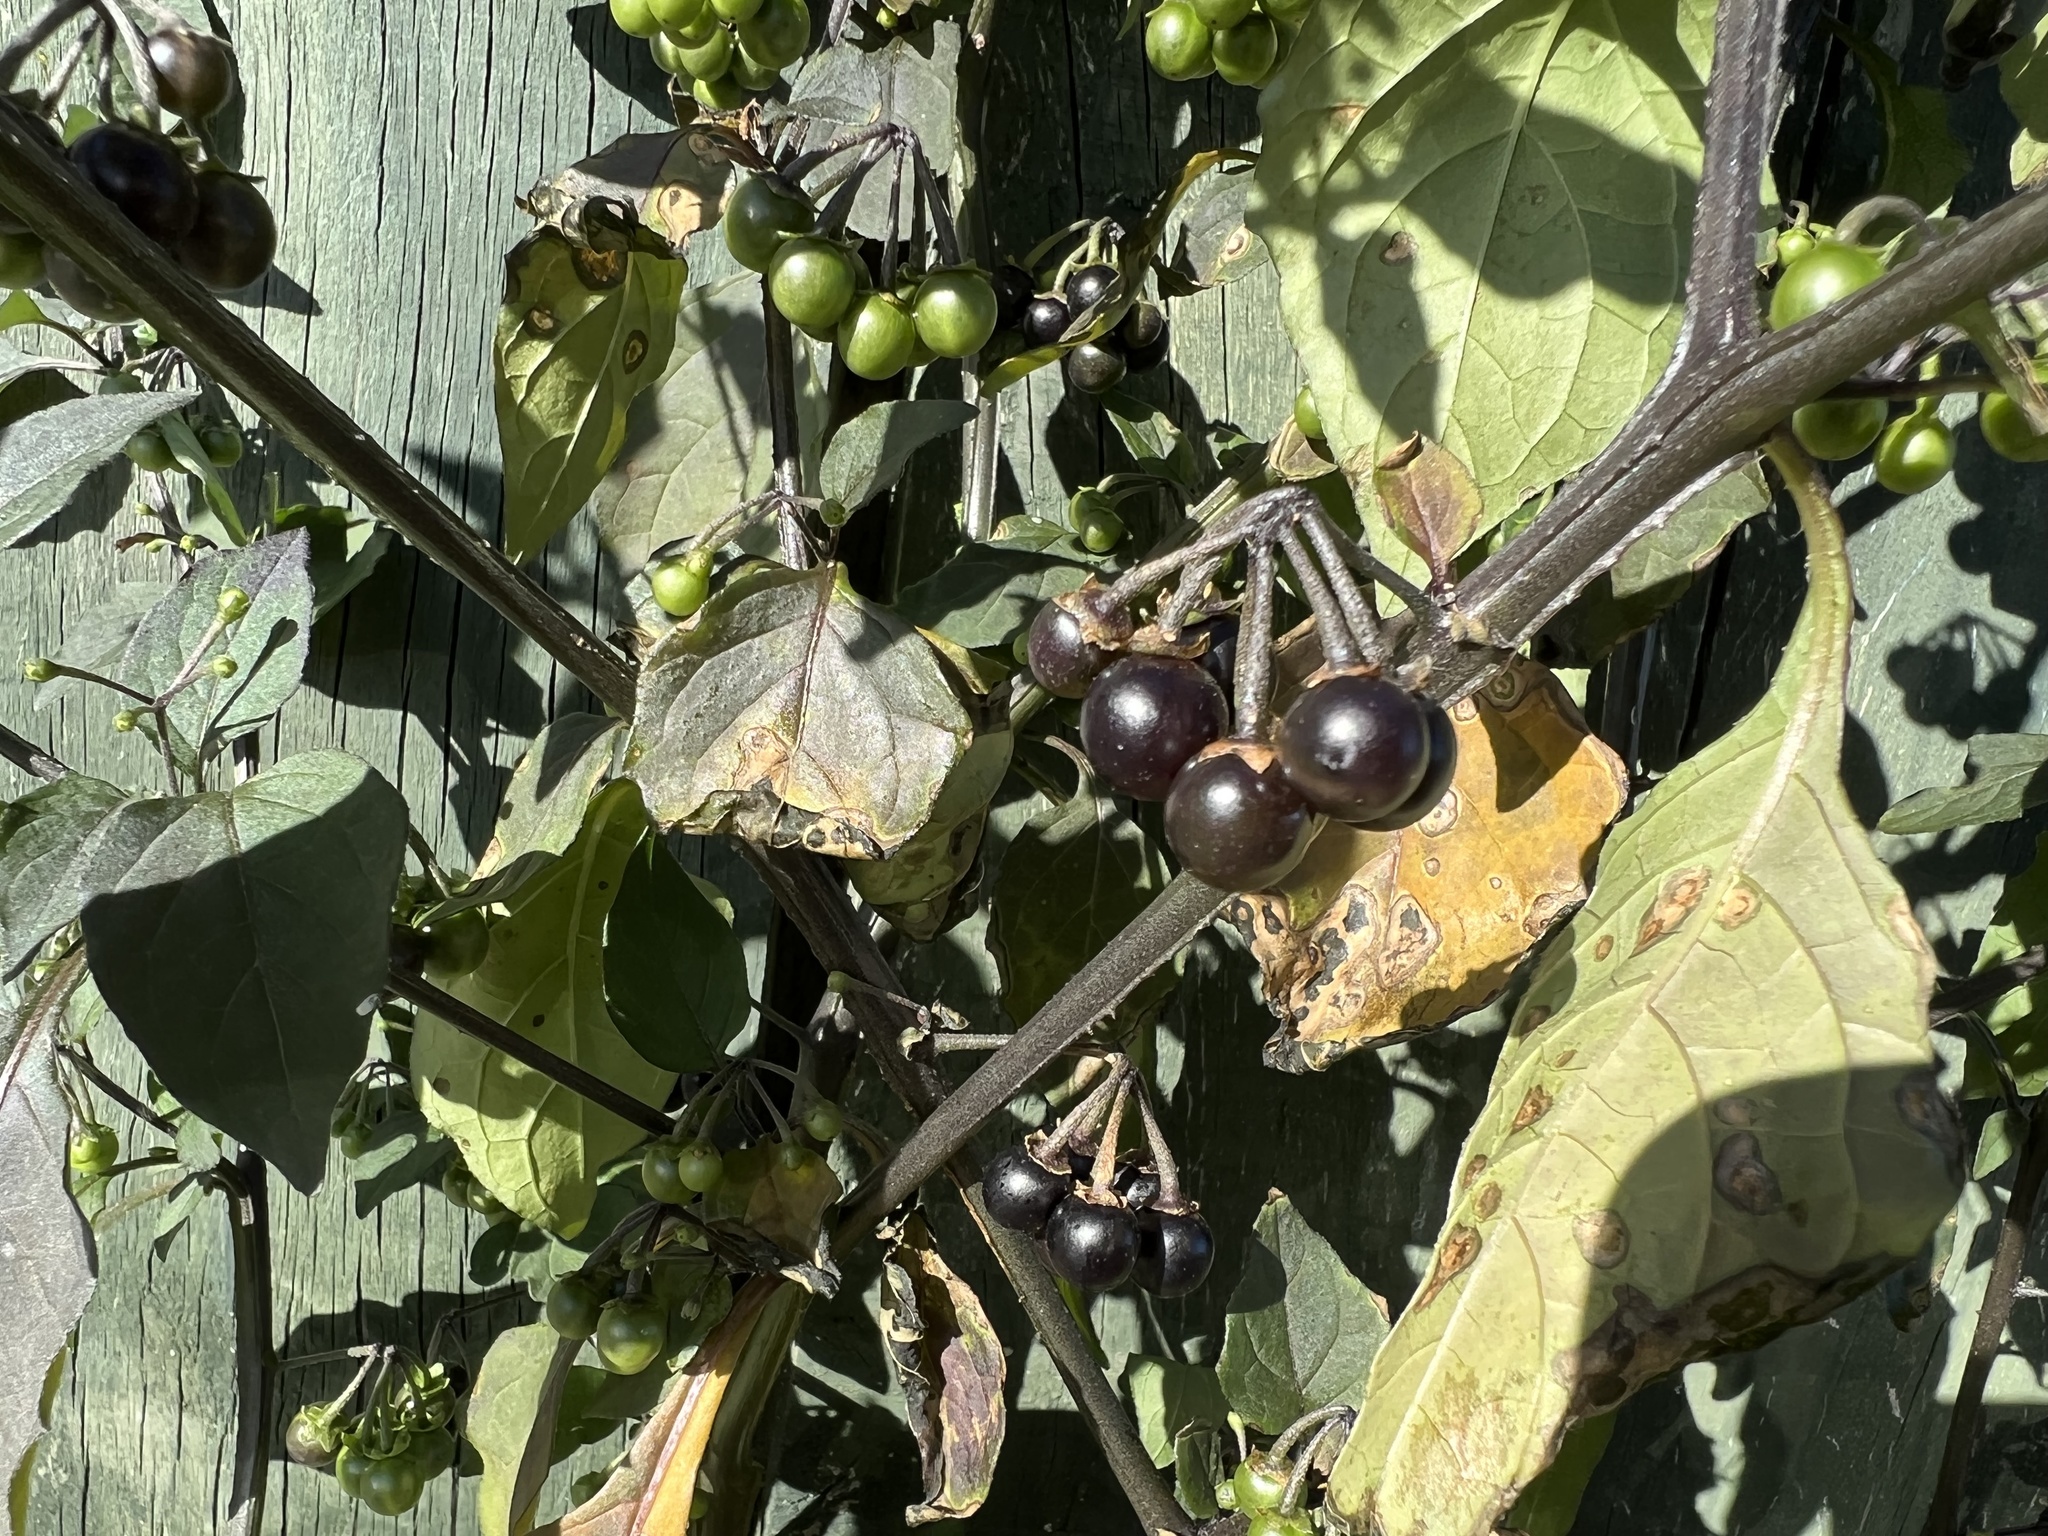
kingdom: Plantae
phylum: Tracheophyta
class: Magnoliopsida
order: Solanales
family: Solanaceae
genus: Solanum
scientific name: Solanum nigrum
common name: Black nightshade
